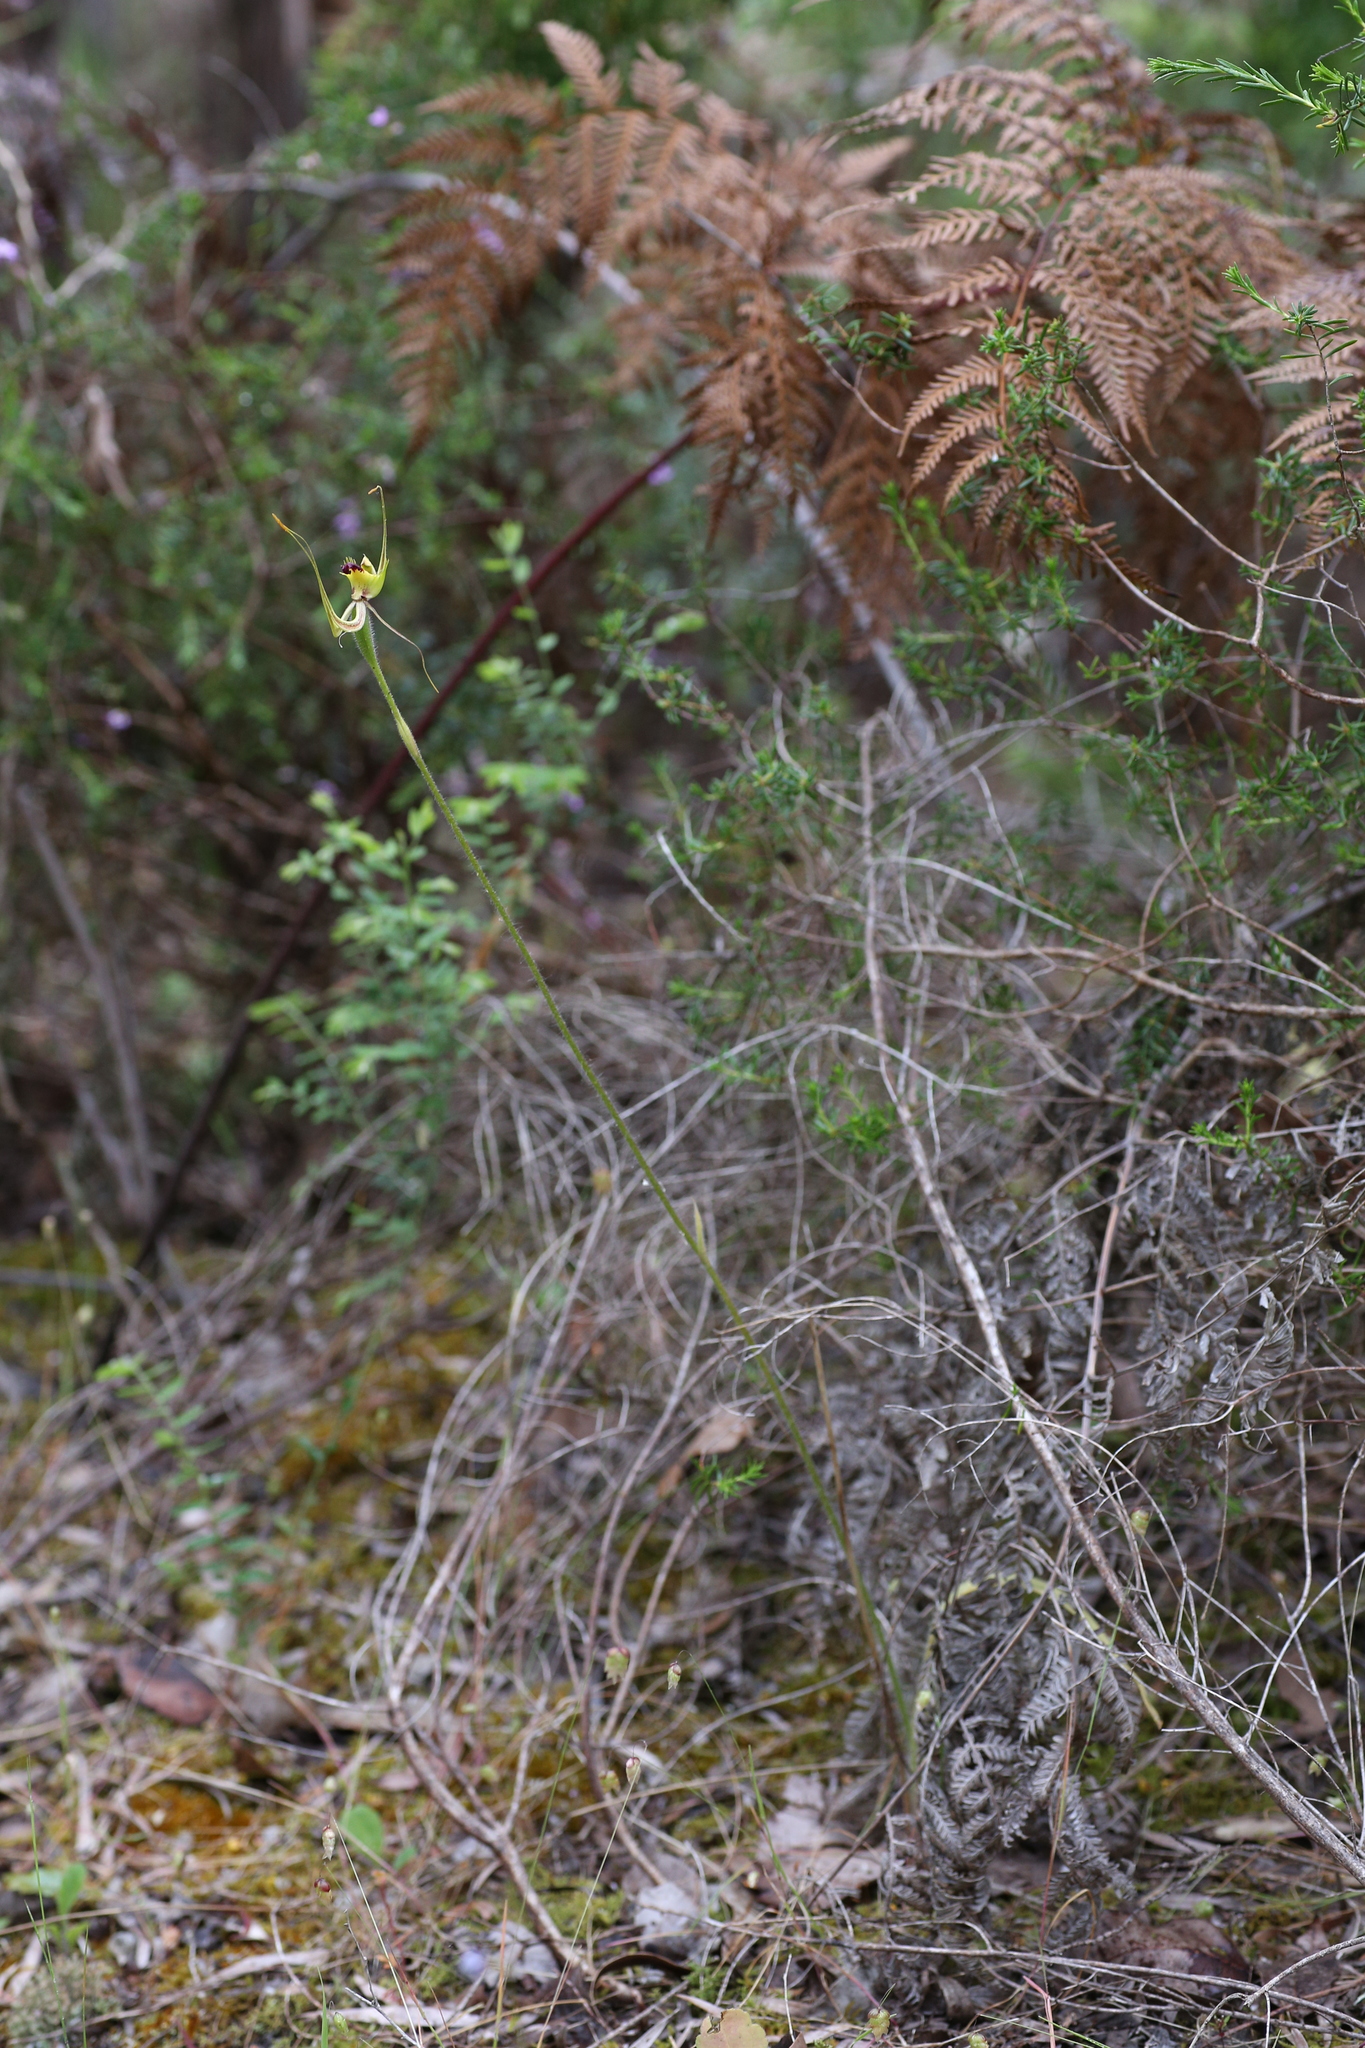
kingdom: Plantae
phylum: Tracheophyta
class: Liliopsida
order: Asparagales
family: Orchidaceae
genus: Caladenia
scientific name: Caladenia attingens
